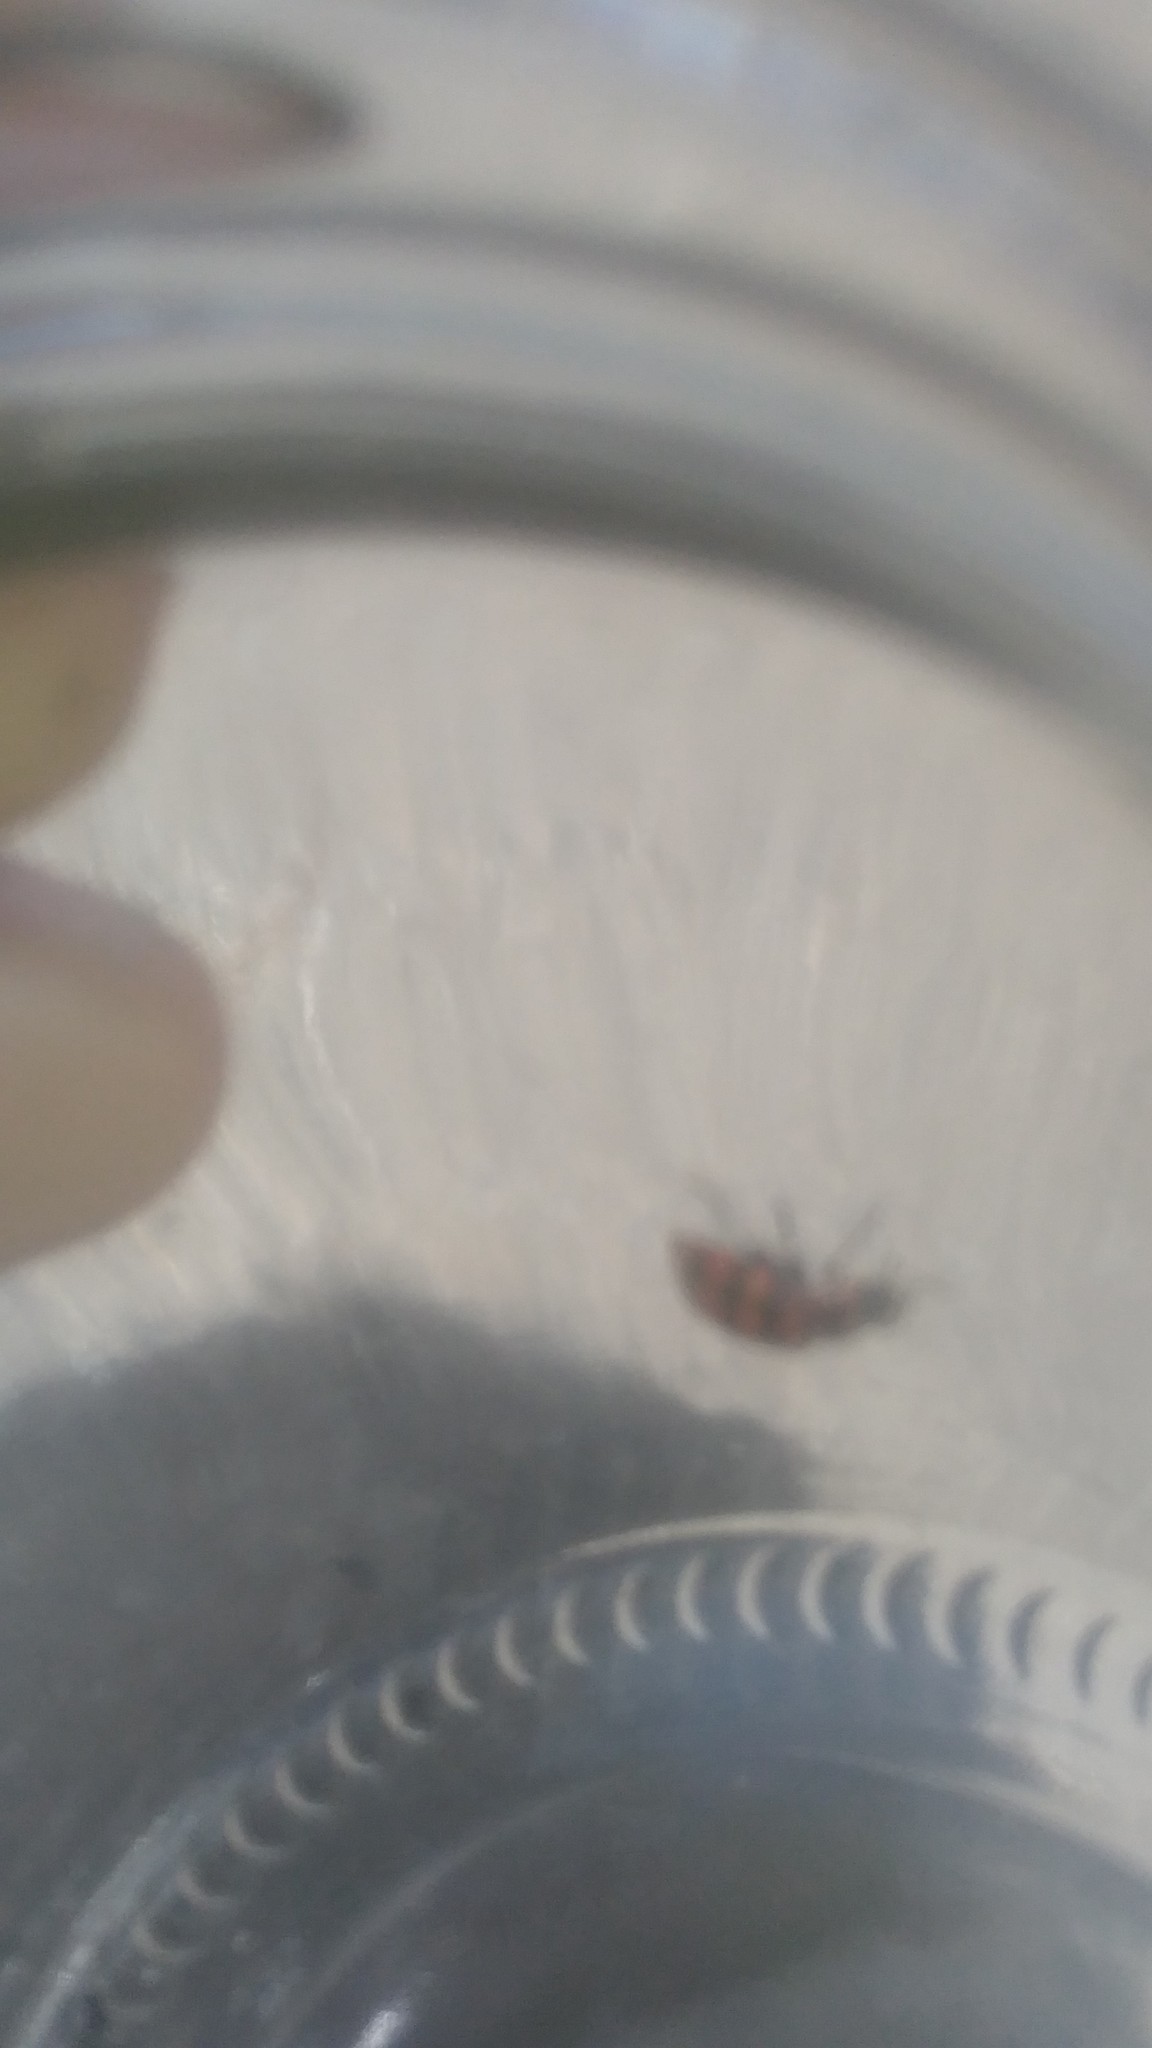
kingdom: Animalia
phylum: Arthropoda
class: Insecta
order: Coleoptera
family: Coccinellidae
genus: Coleomegilla
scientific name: Coleomegilla
